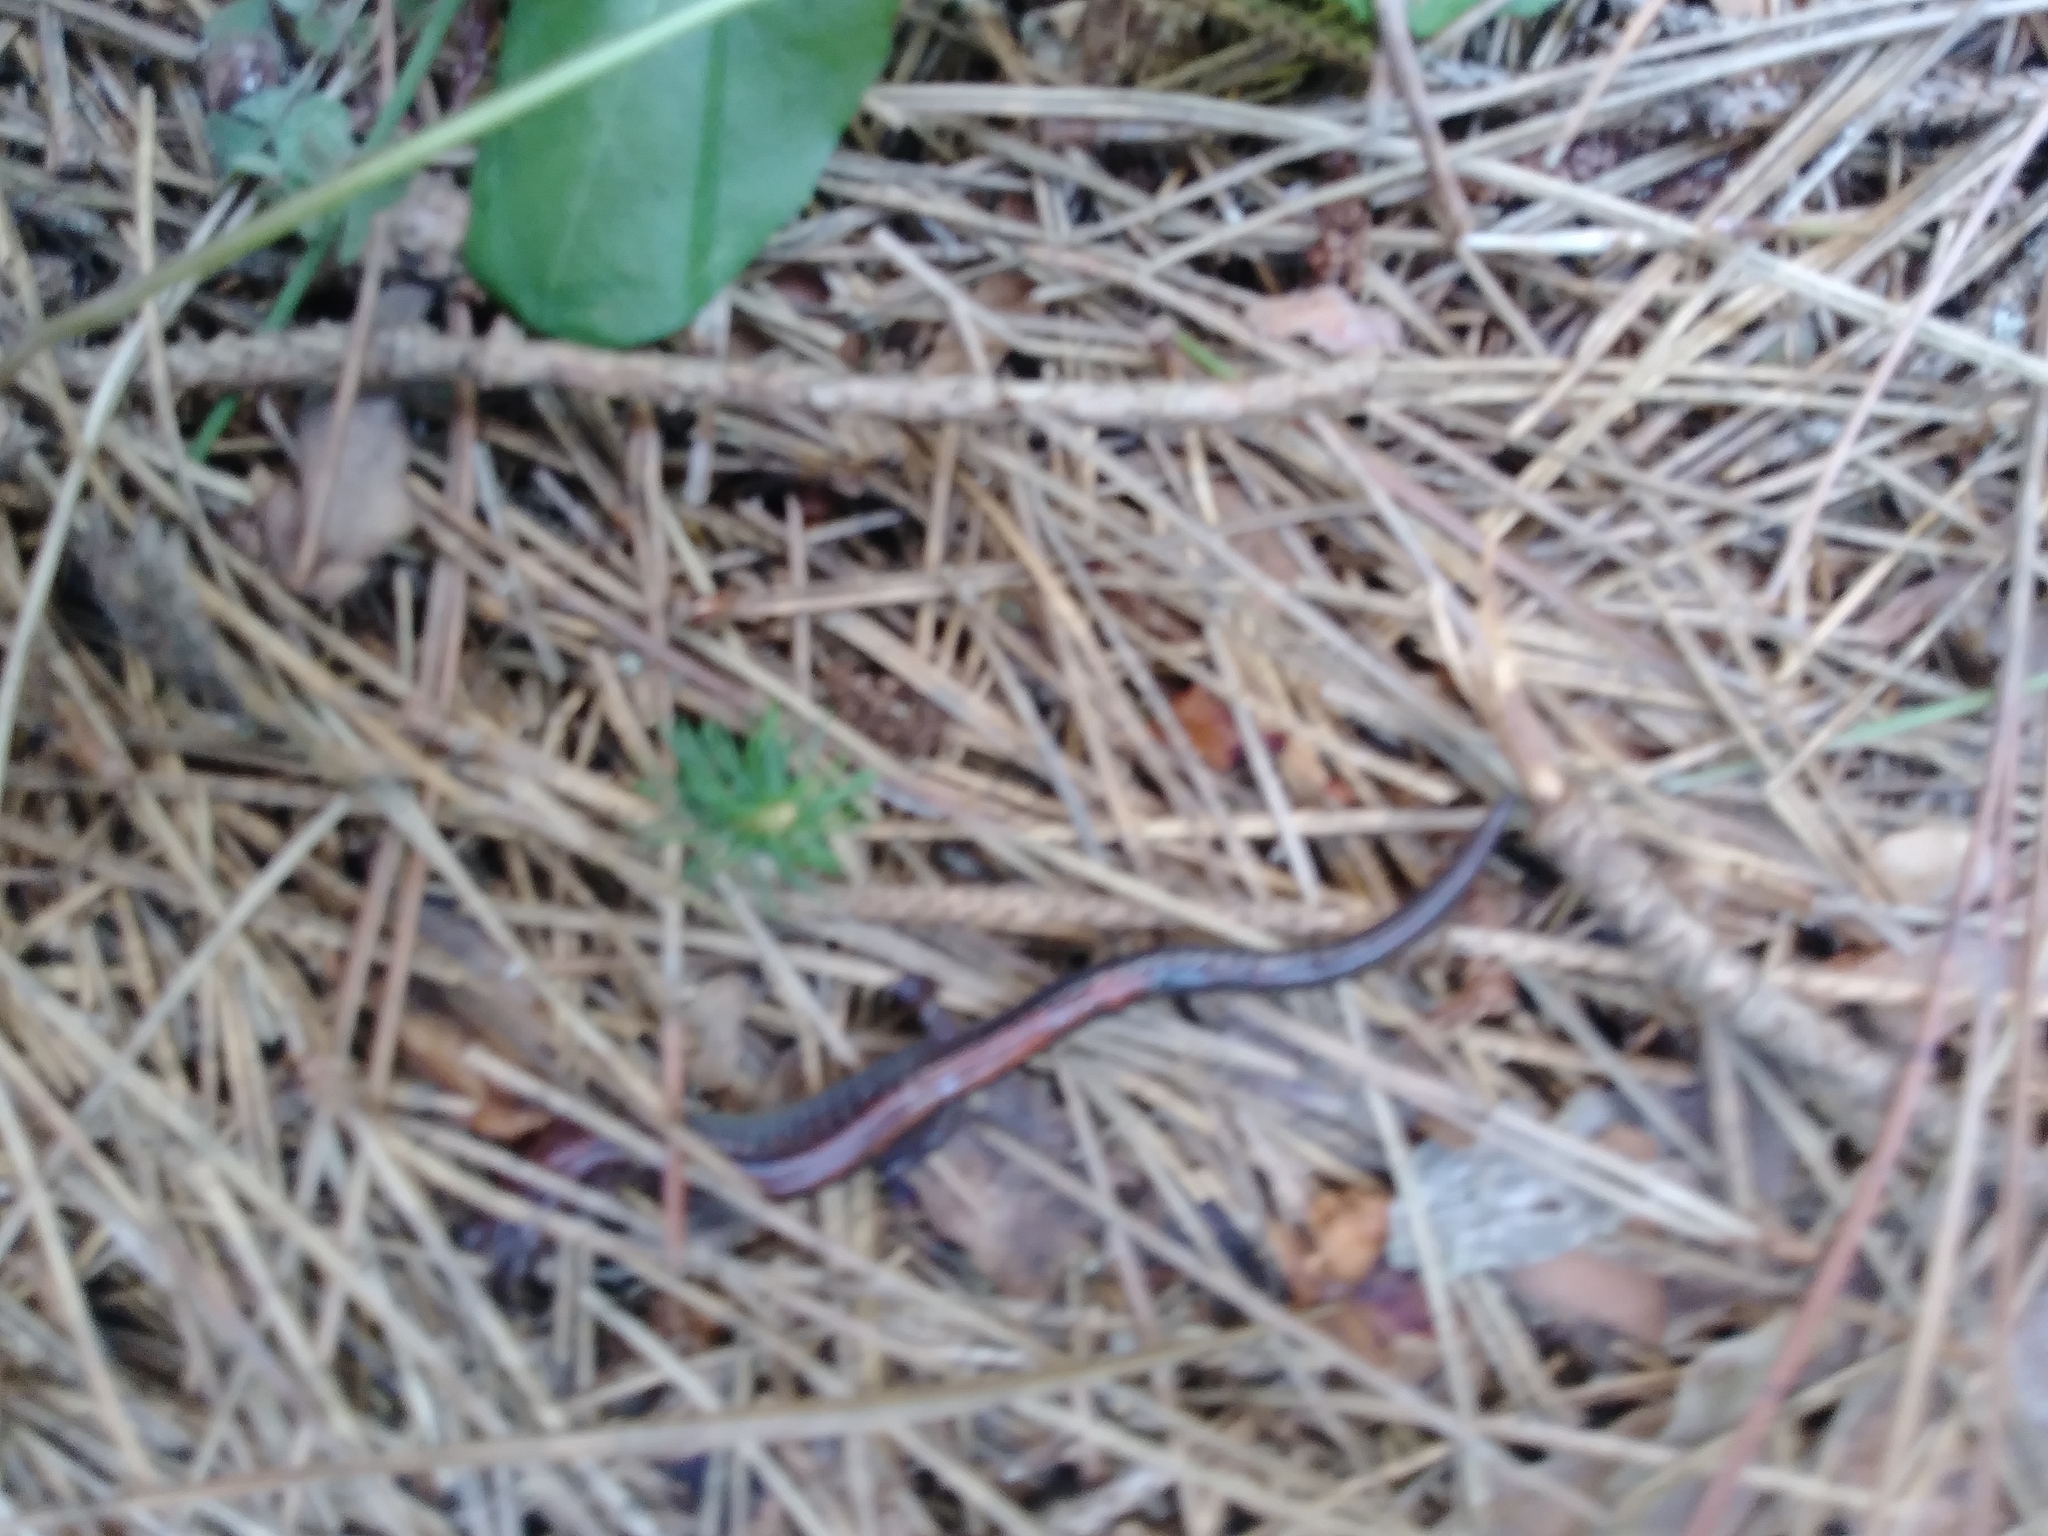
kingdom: Animalia
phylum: Chordata
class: Amphibia
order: Caudata
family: Plethodontidae
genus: Plethodon
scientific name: Plethodon cinereus
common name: Redback salamander
